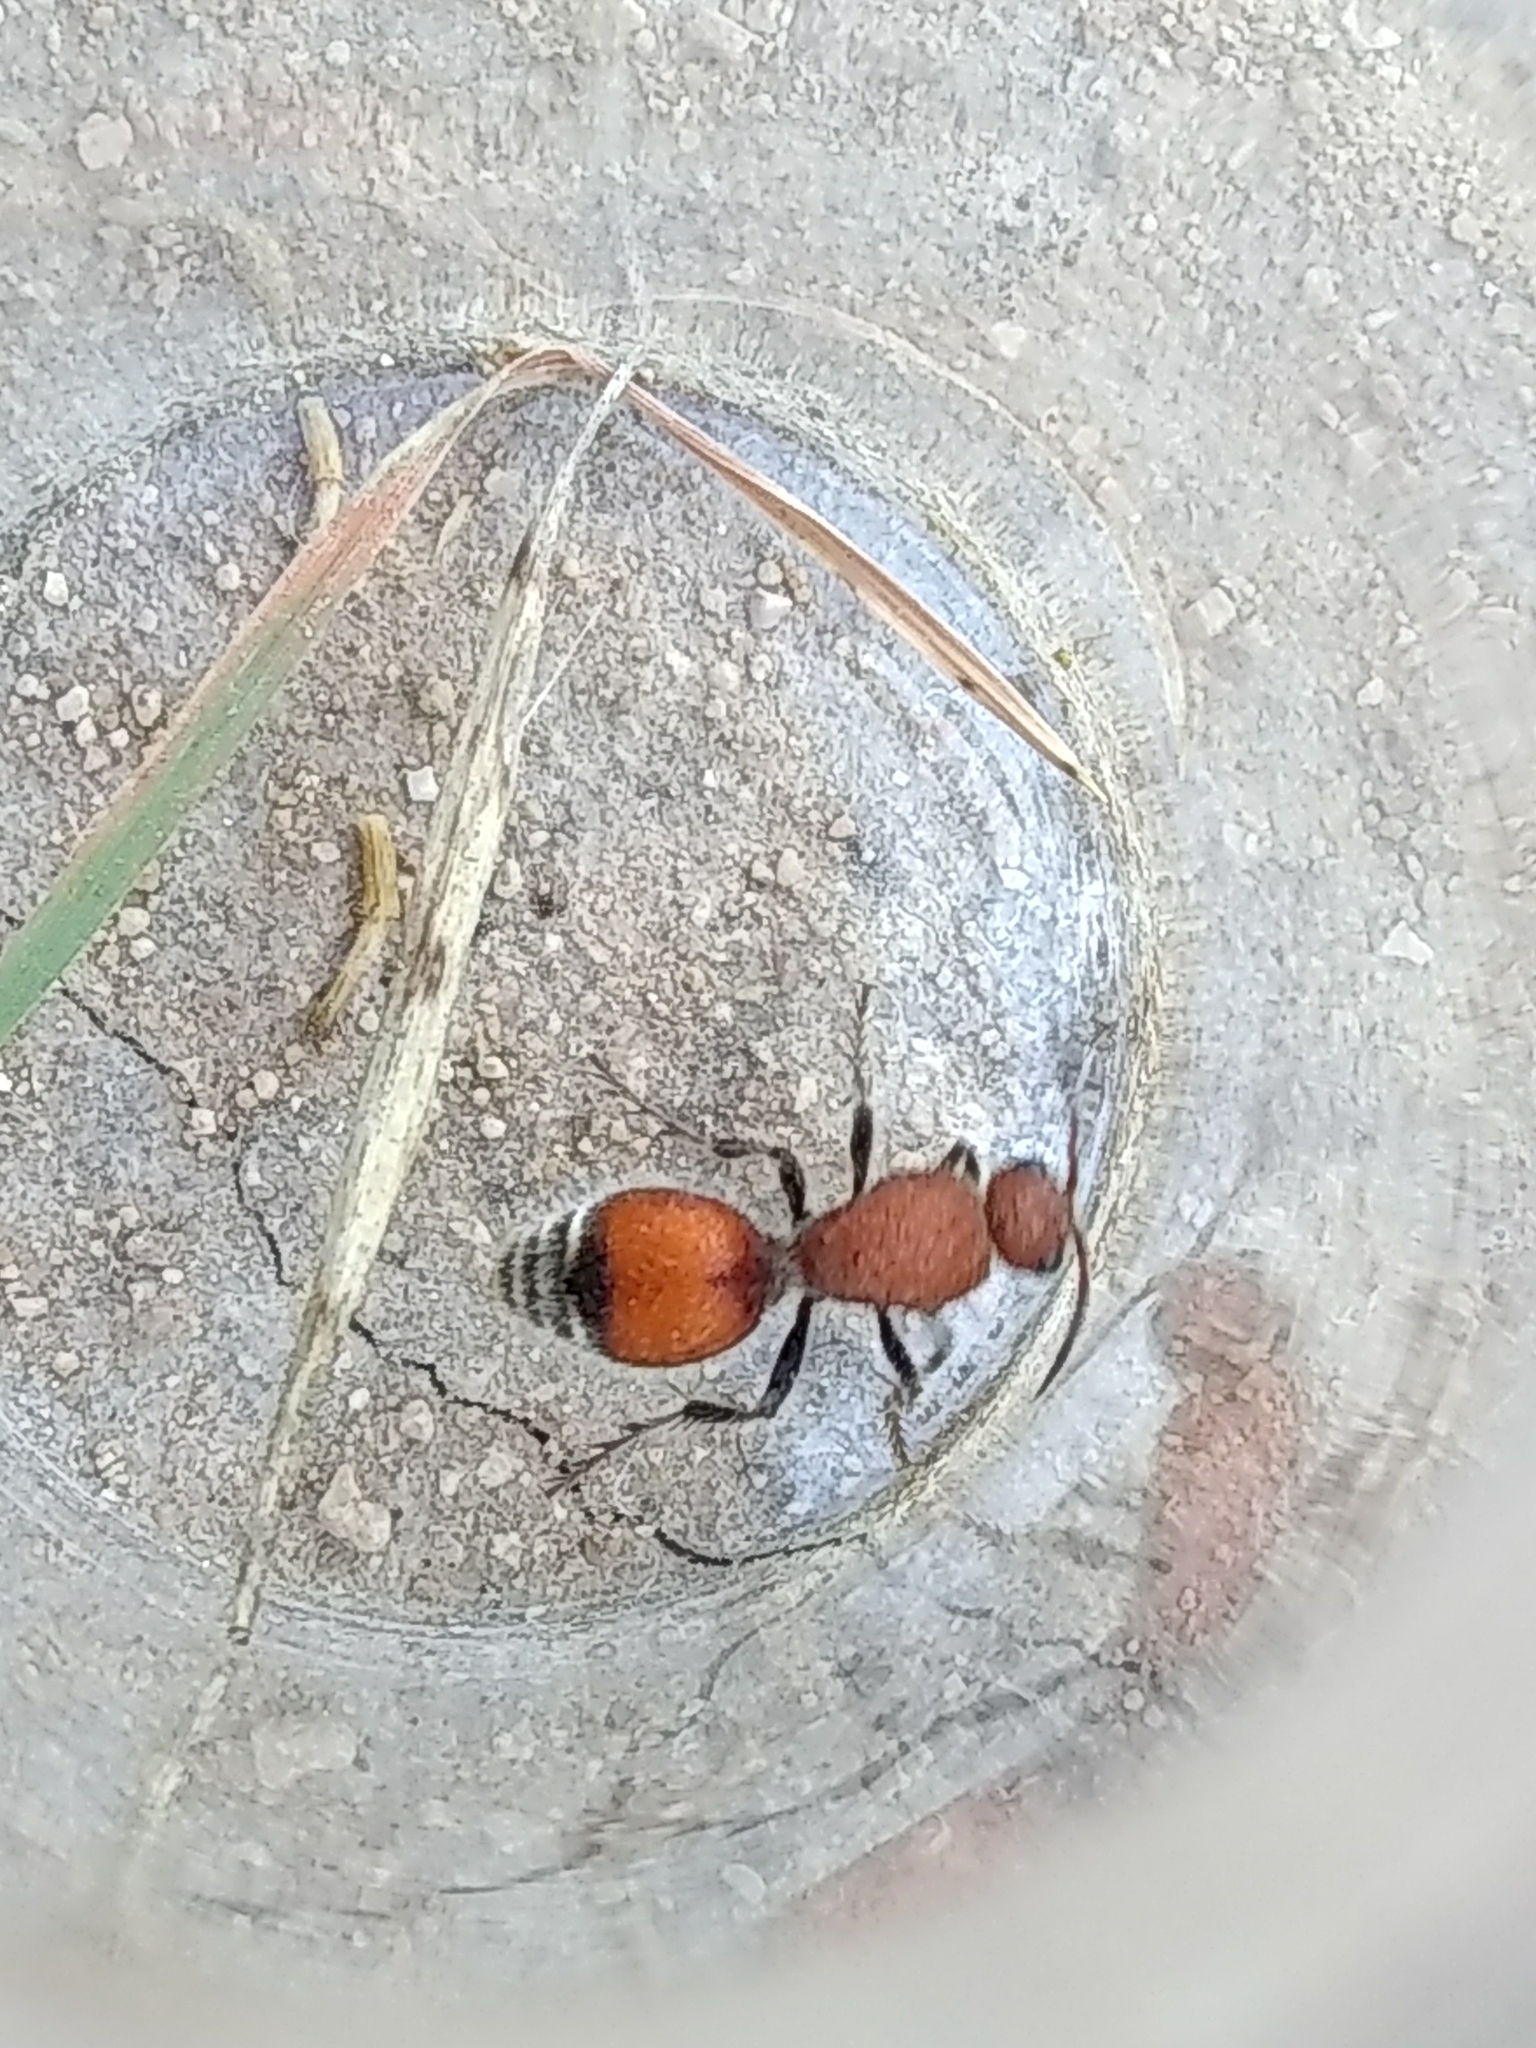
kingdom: Animalia
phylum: Arthropoda
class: Insecta
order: Hymenoptera
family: Mutillidae
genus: Dasymutilla
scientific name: Dasymutilla
